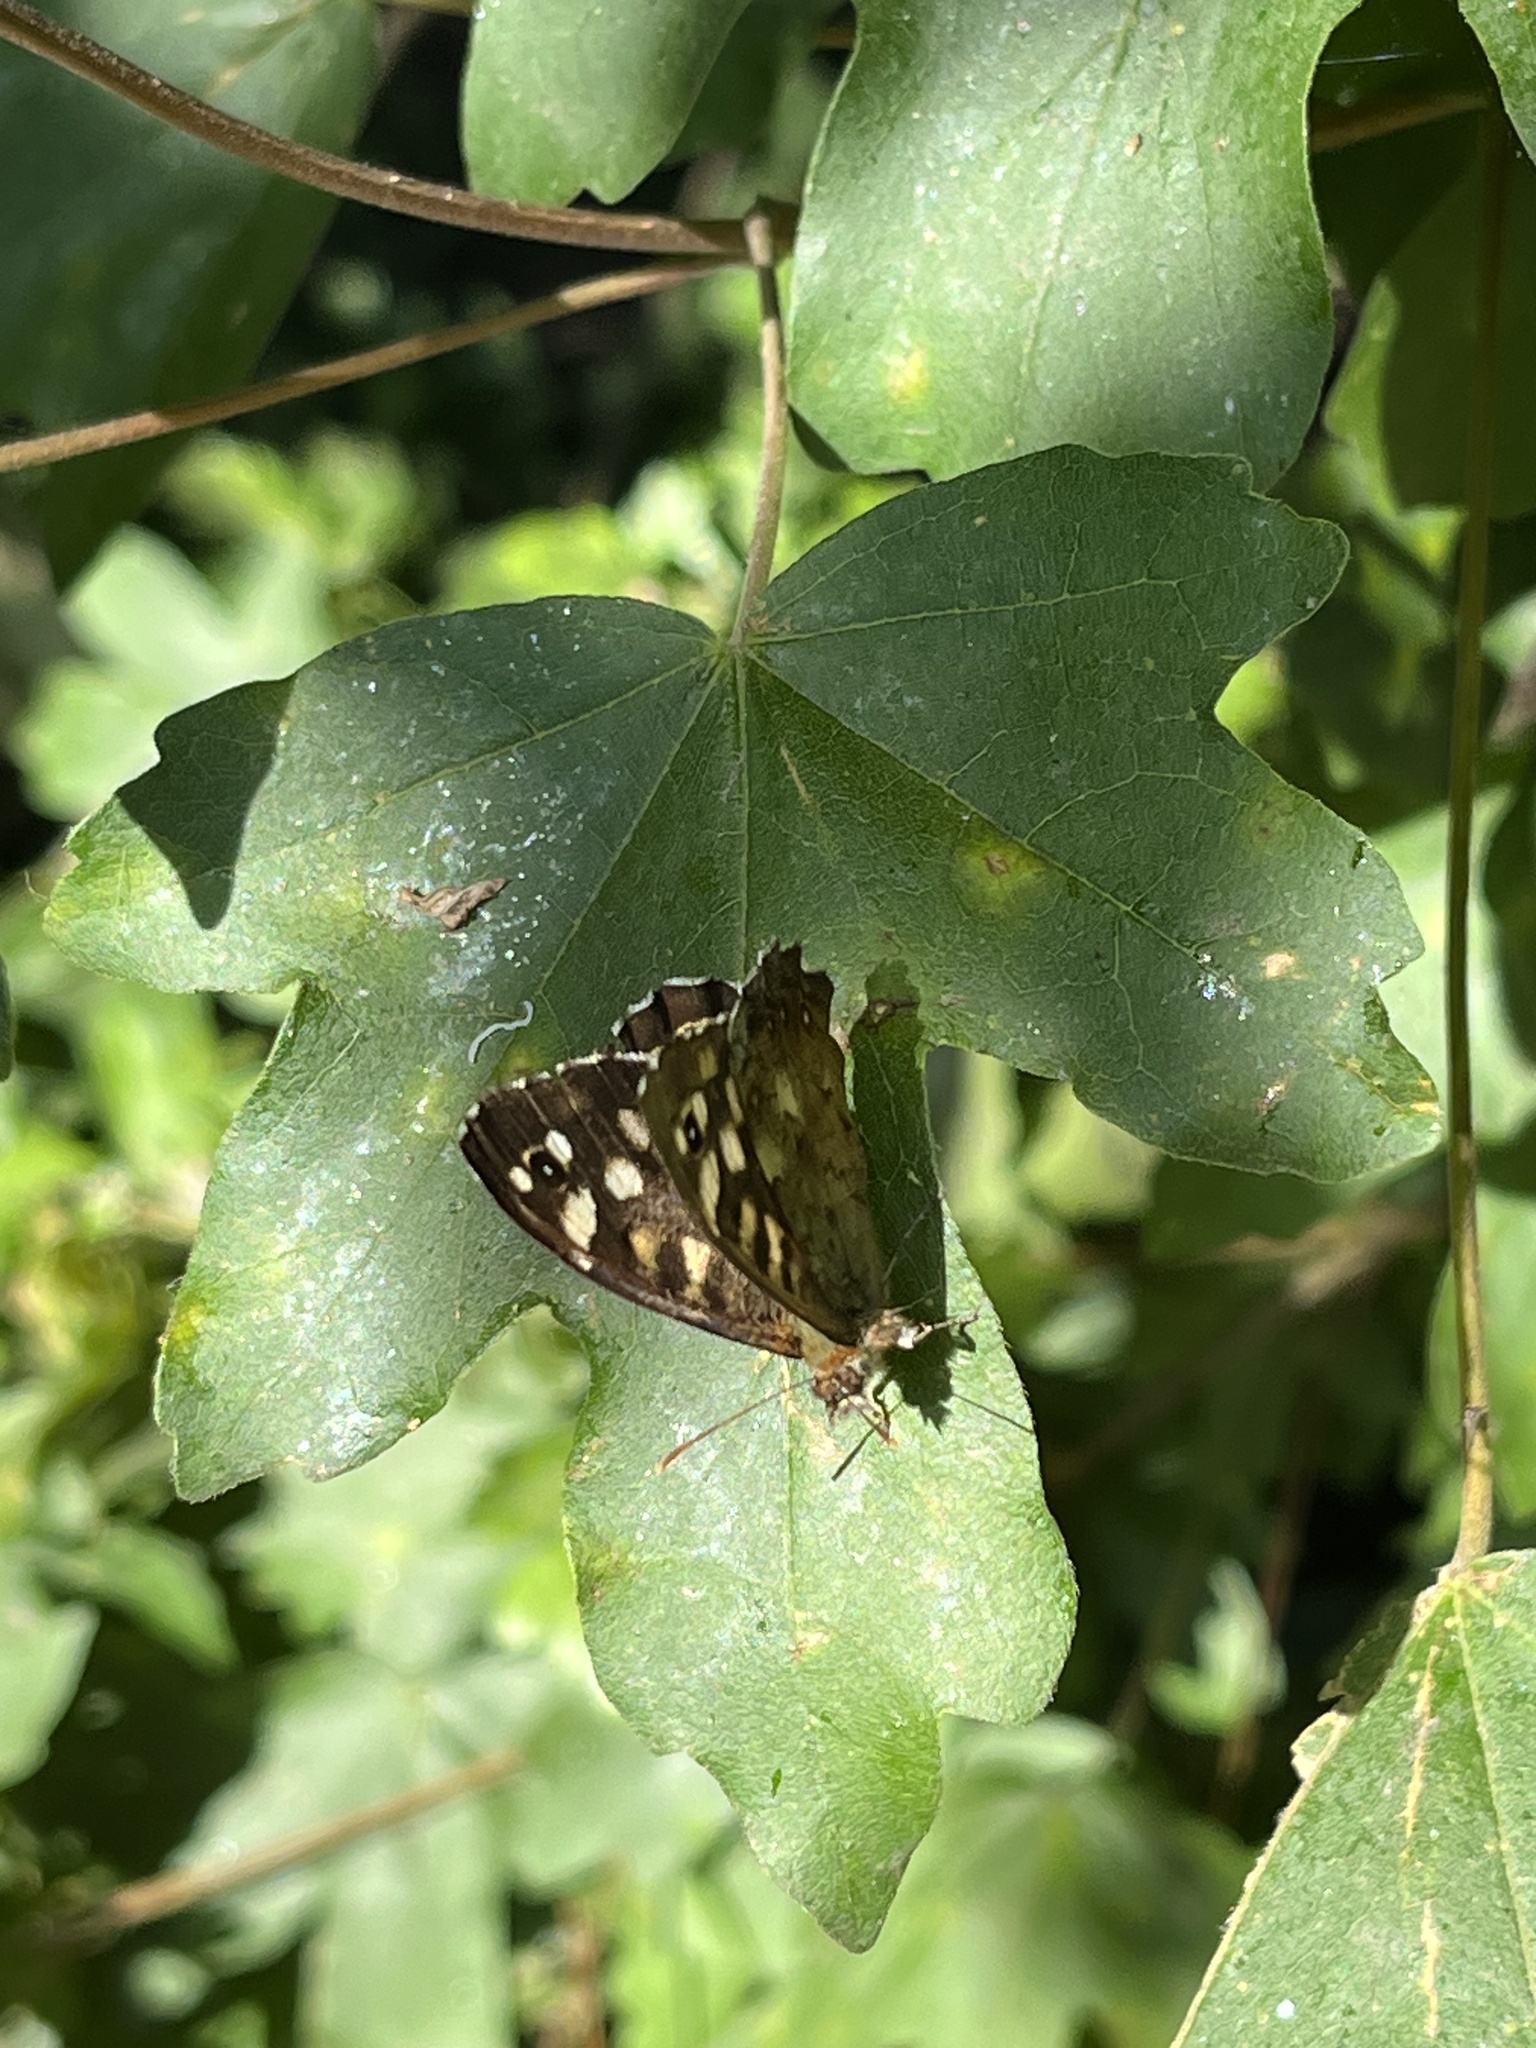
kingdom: Animalia
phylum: Arthropoda
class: Insecta
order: Lepidoptera
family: Nymphalidae
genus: Pararge
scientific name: Pararge aegeria
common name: Speckled wood
